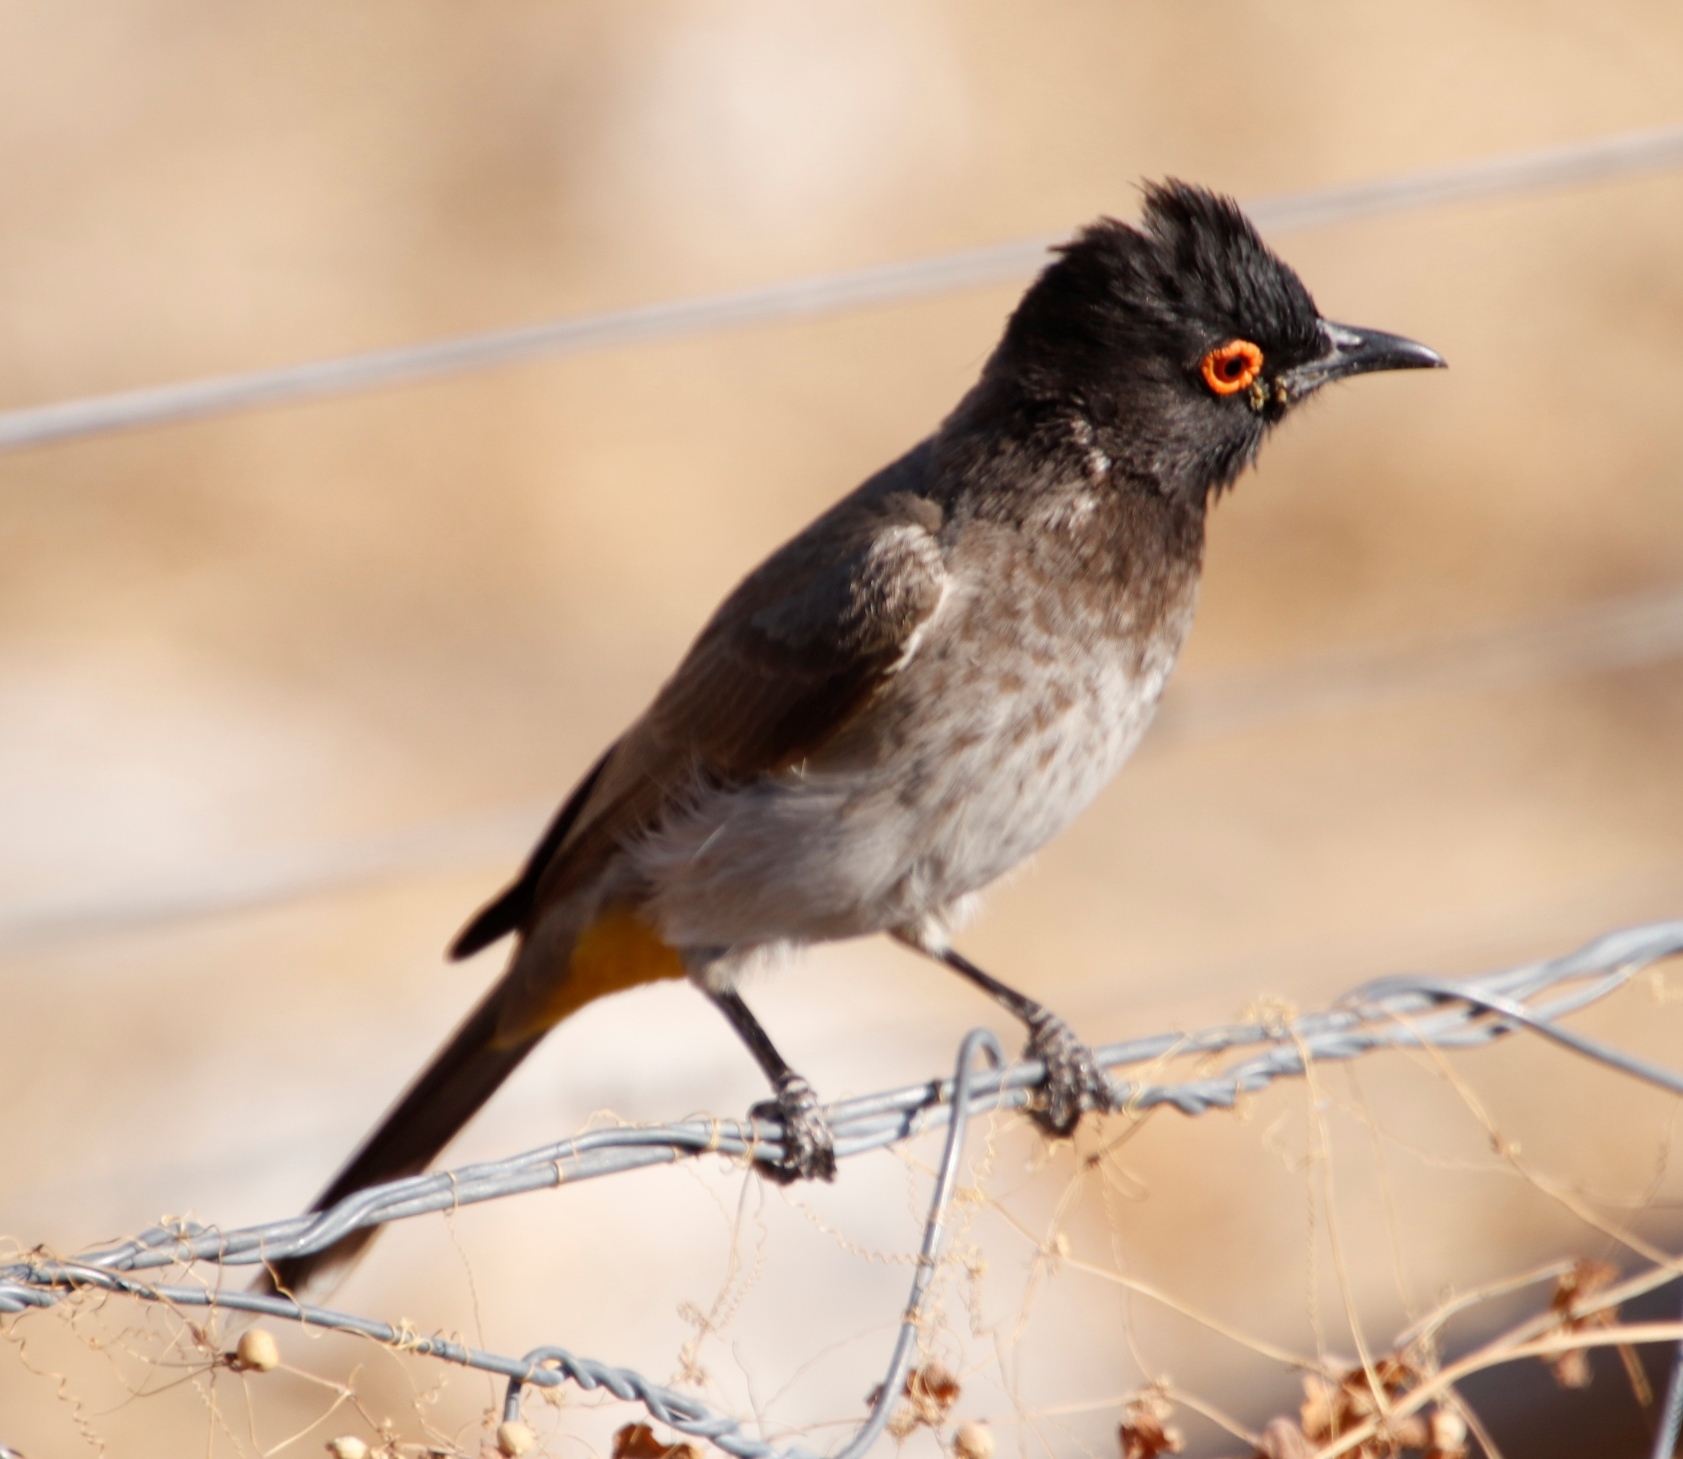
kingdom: Animalia
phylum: Chordata
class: Aves
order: Passeriformes
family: Pycnonotidae
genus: Pycnonotus
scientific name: Pycnonotus nigricans
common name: African red-eyed bulbul
